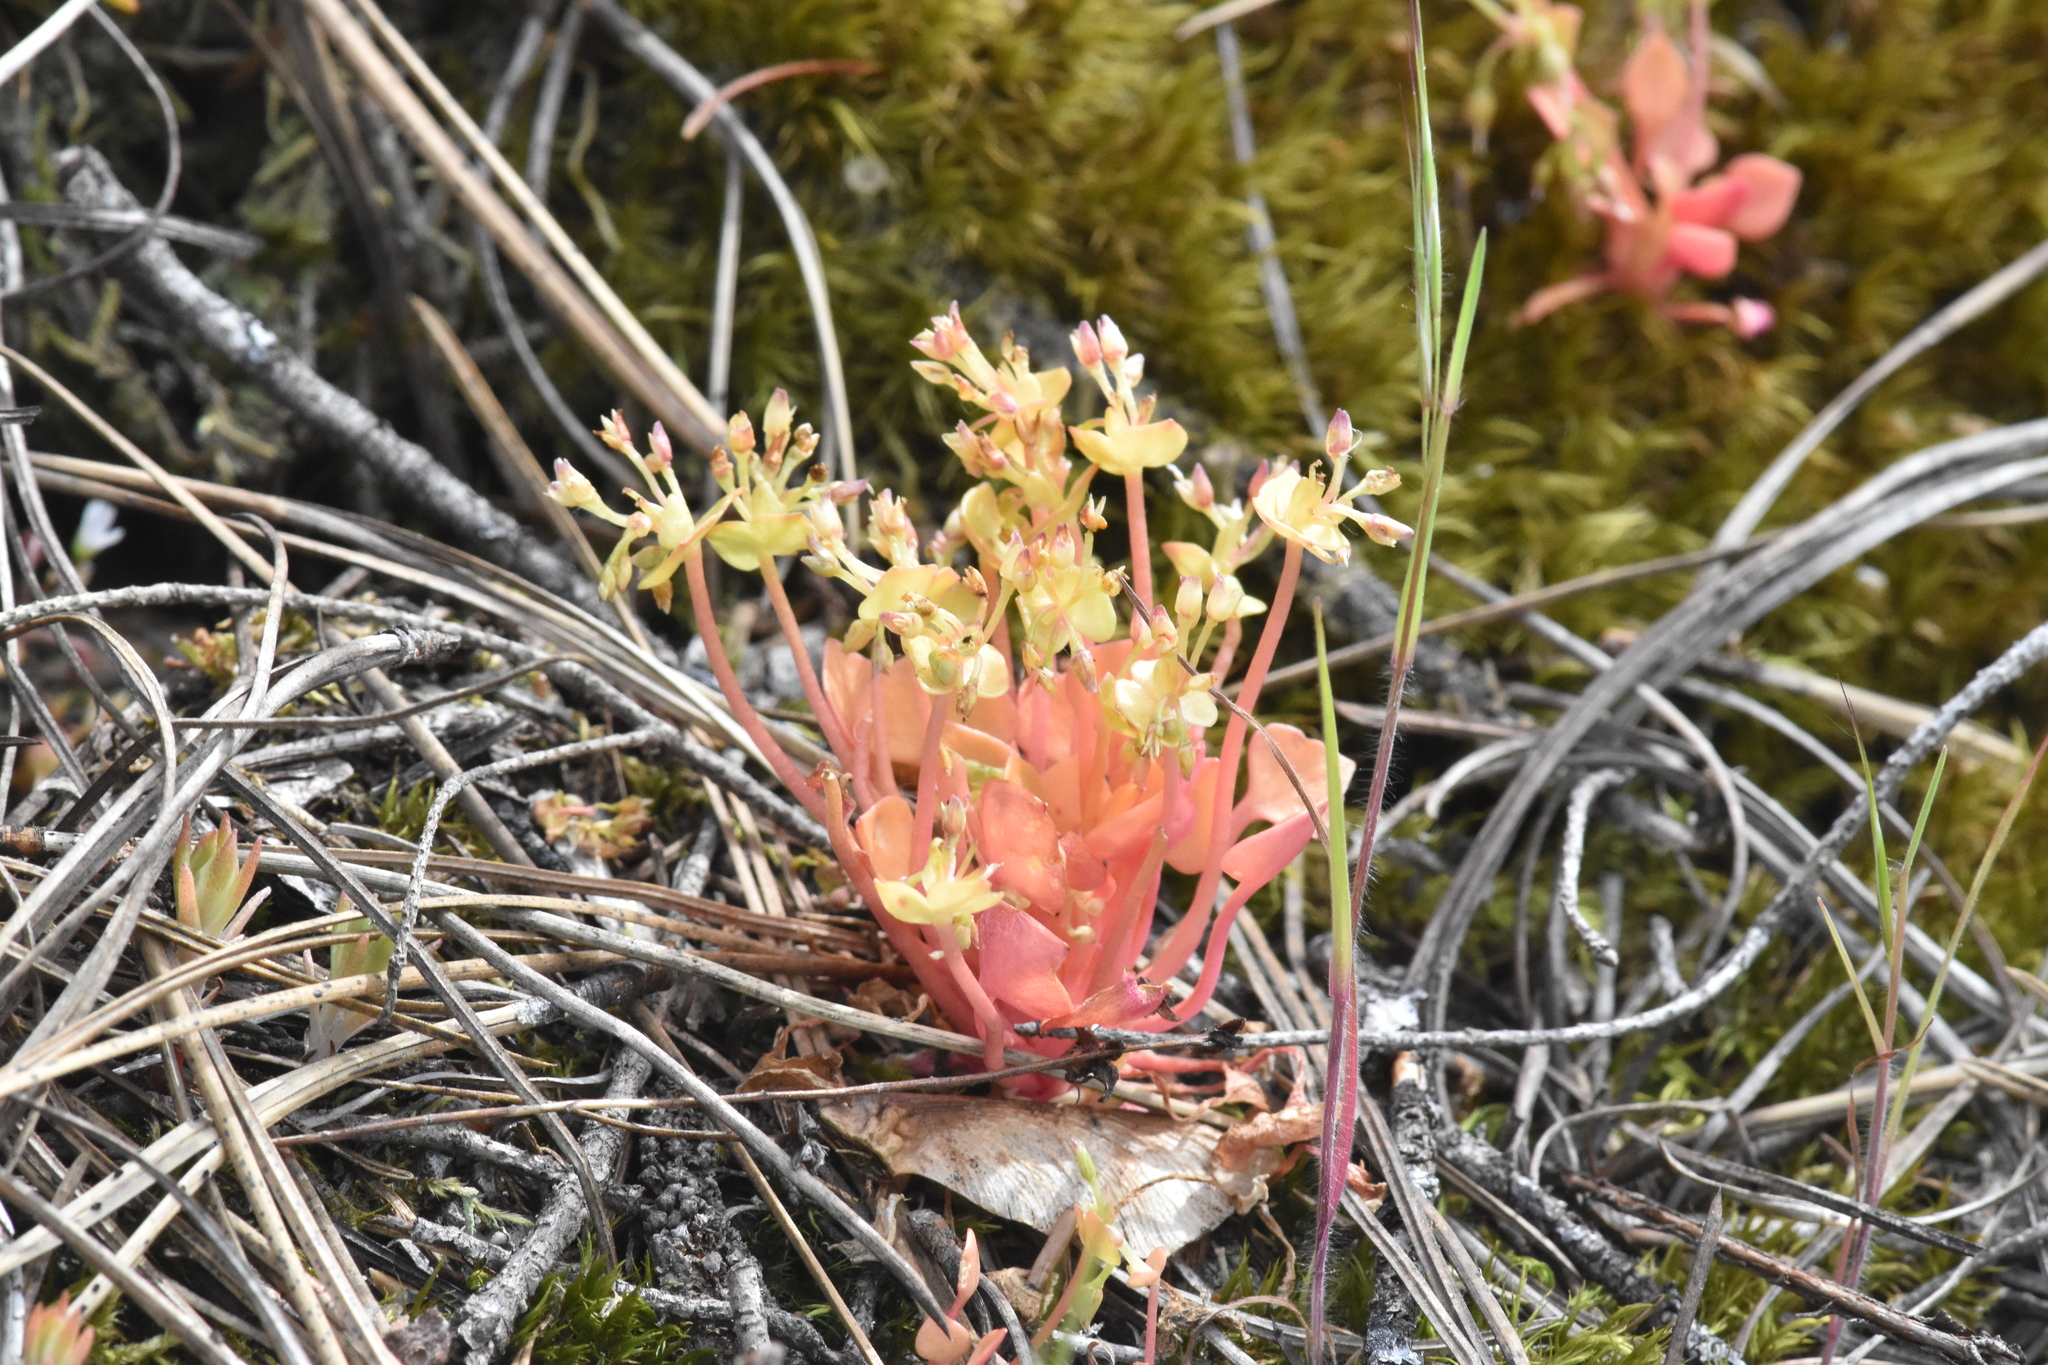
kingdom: Plantae
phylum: Tracheophyta
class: Magnoliopsida
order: Caryophyllales
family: Montiaceae
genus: Claytonia
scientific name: Claytonia rubra
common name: Erubescent miner's-lettuce
